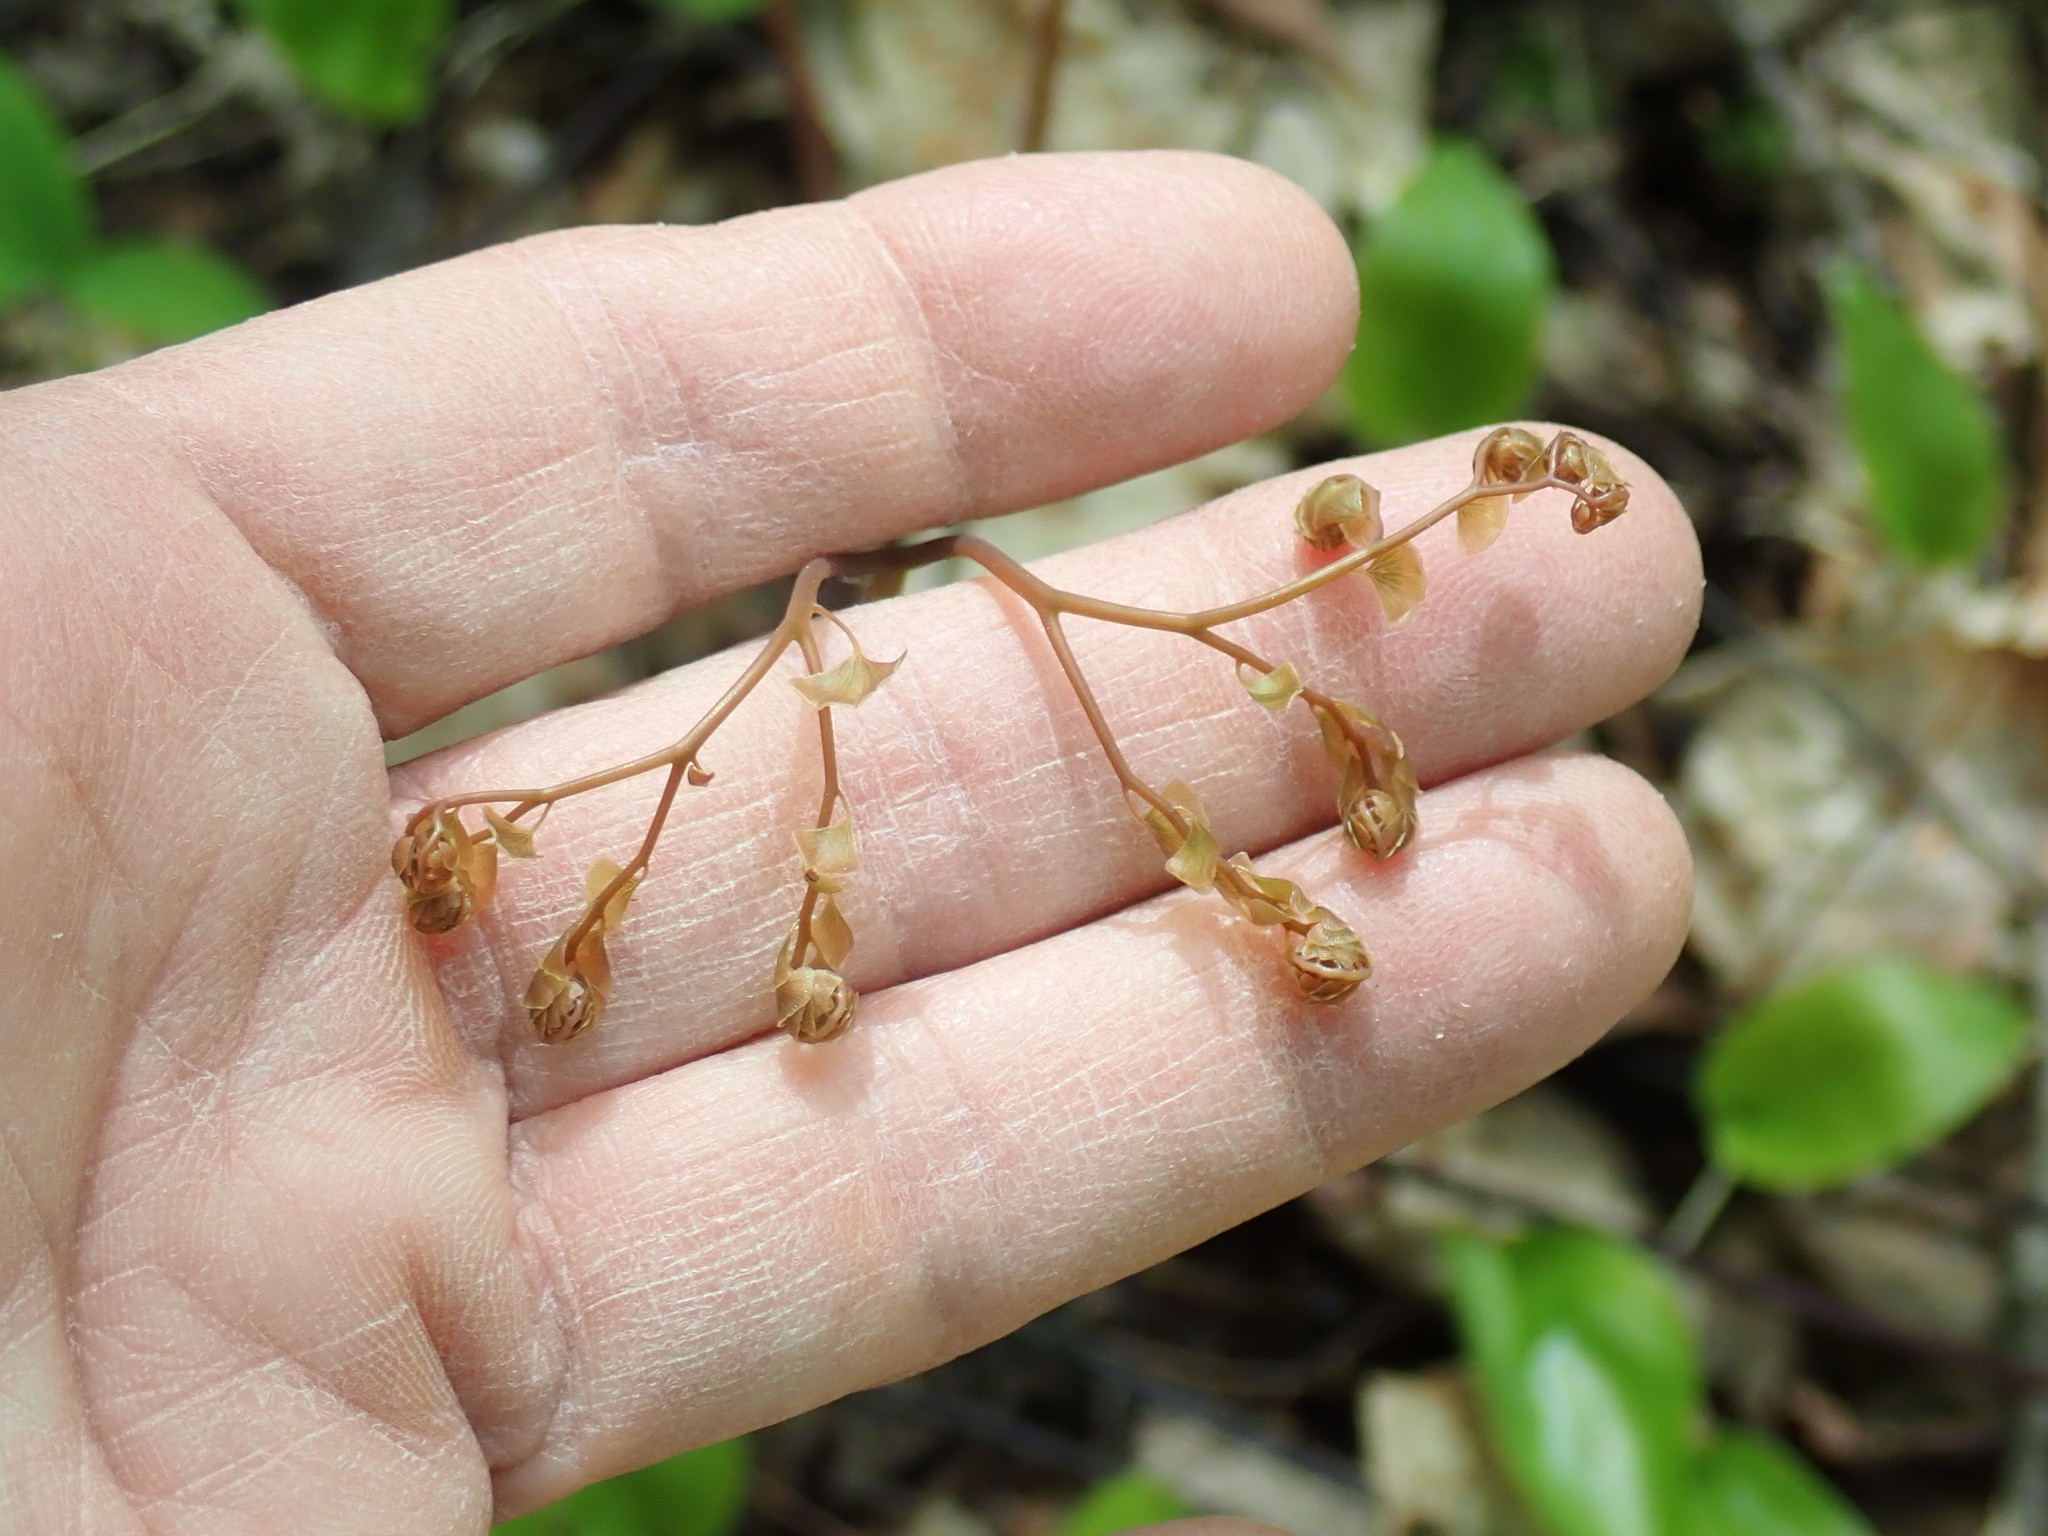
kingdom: Plantae
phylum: Tracheophyta
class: Polypodiopsida
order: Polypodiales
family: Pteridaceae
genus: Adiantum
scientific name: Adiantum pedatum
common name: Five-finger fern
